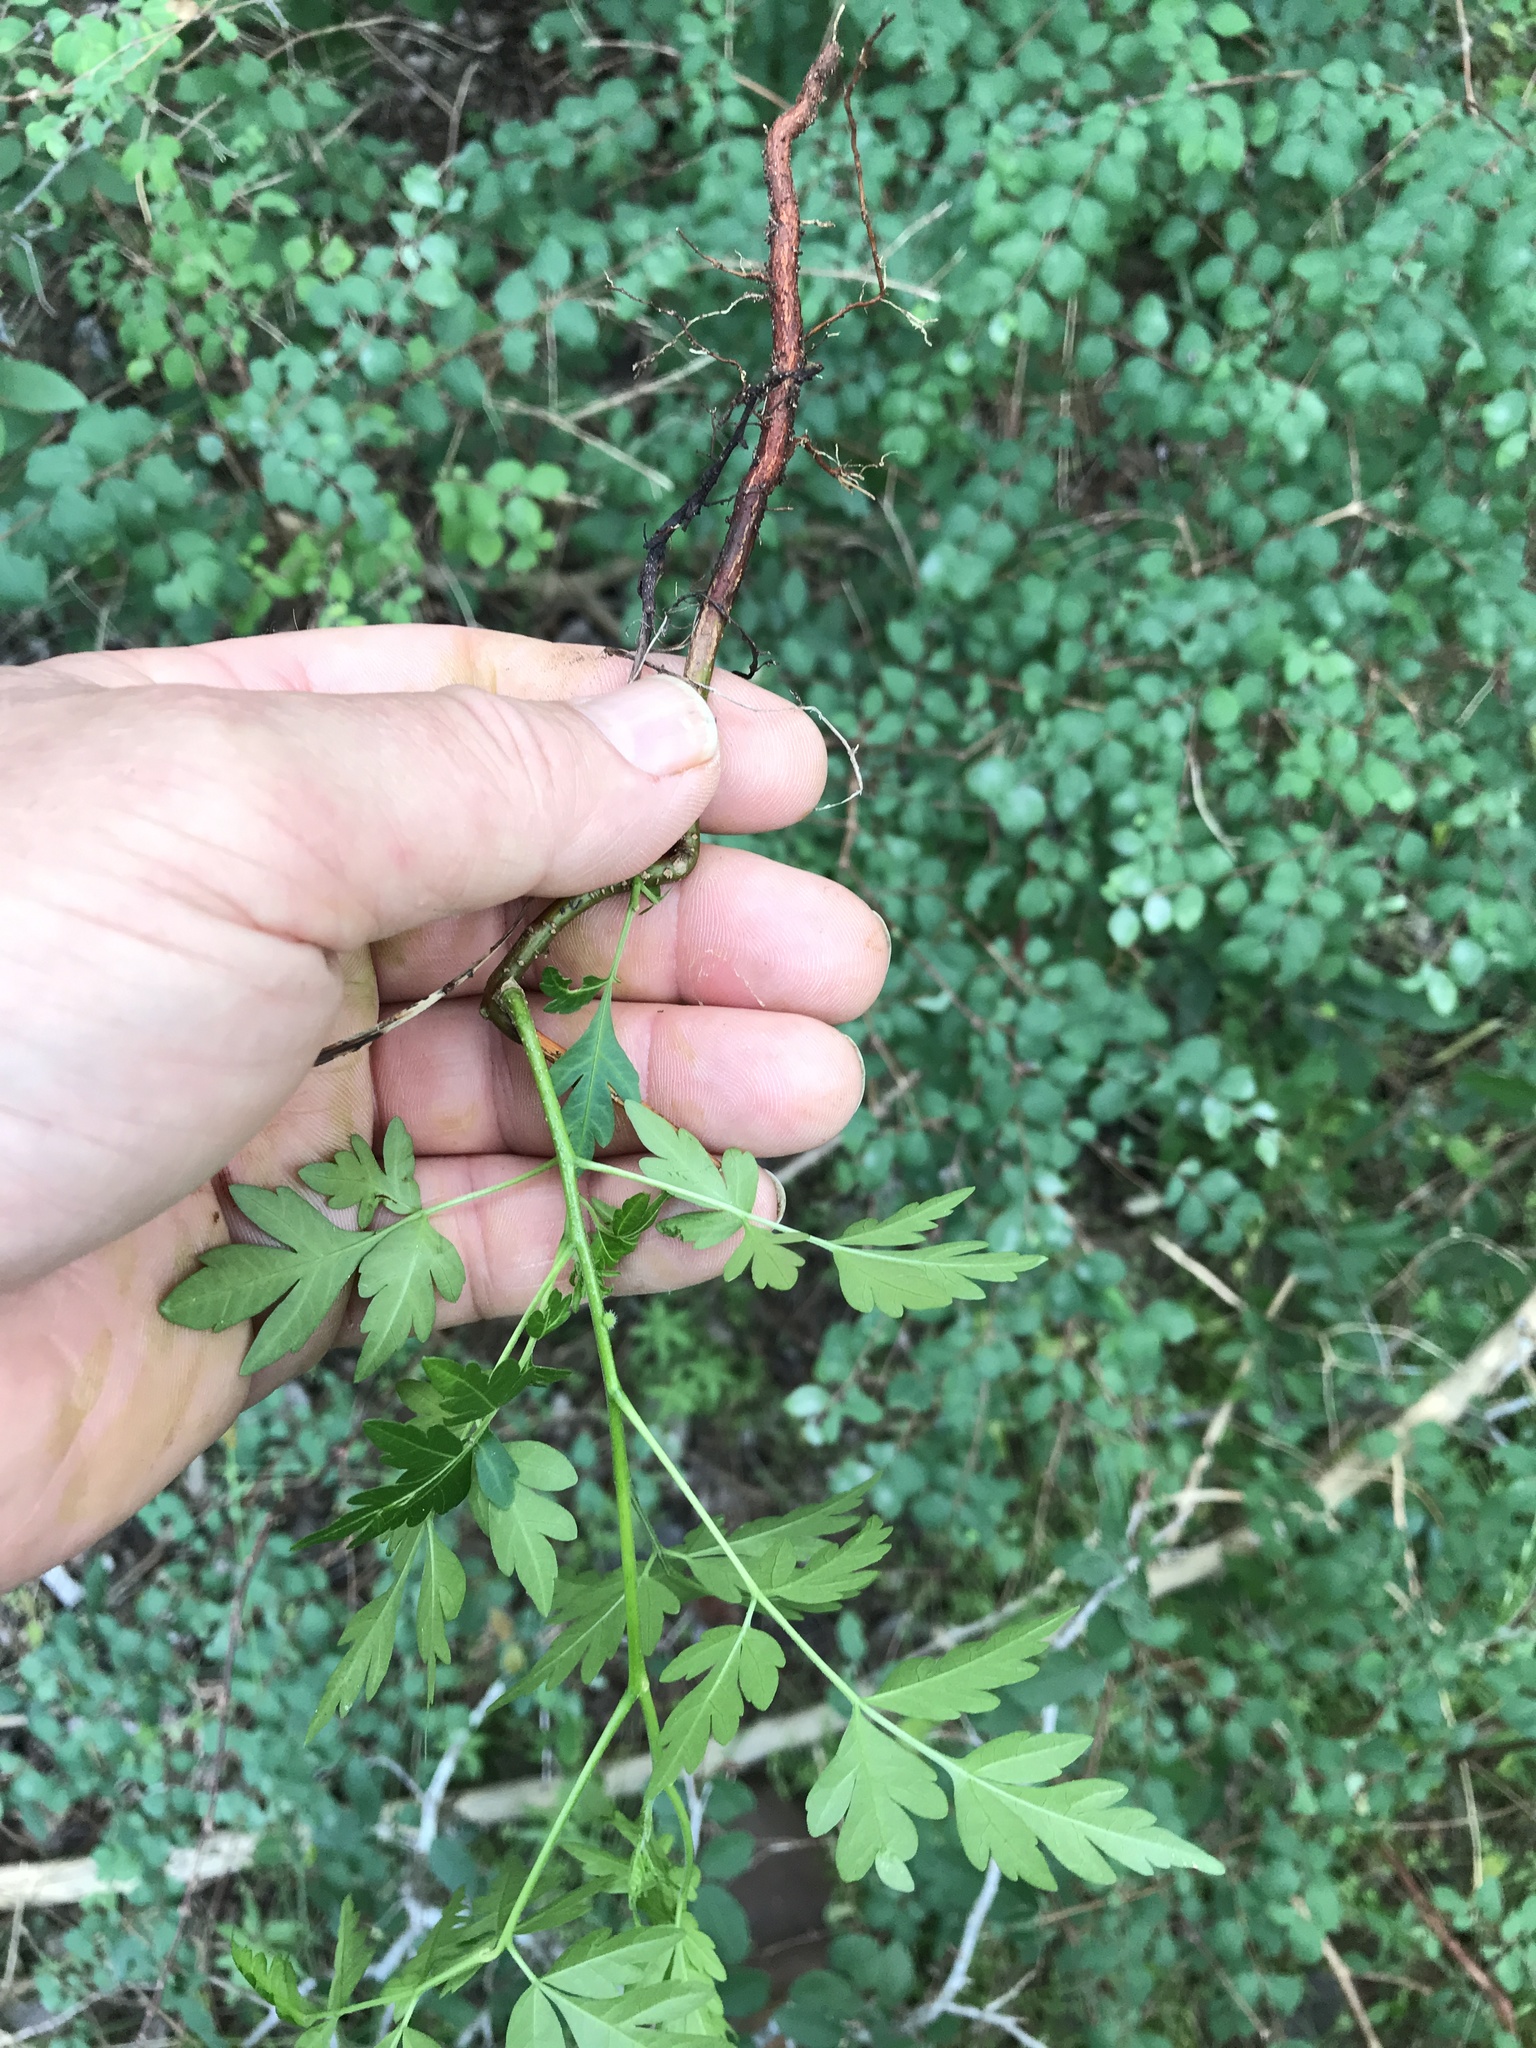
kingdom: Plantae
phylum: Tracheophyta
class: Magnoliopsida
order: Sapindales
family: Meliaceae
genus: Melia
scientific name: Melia azedarach
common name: Chinaberrytree
